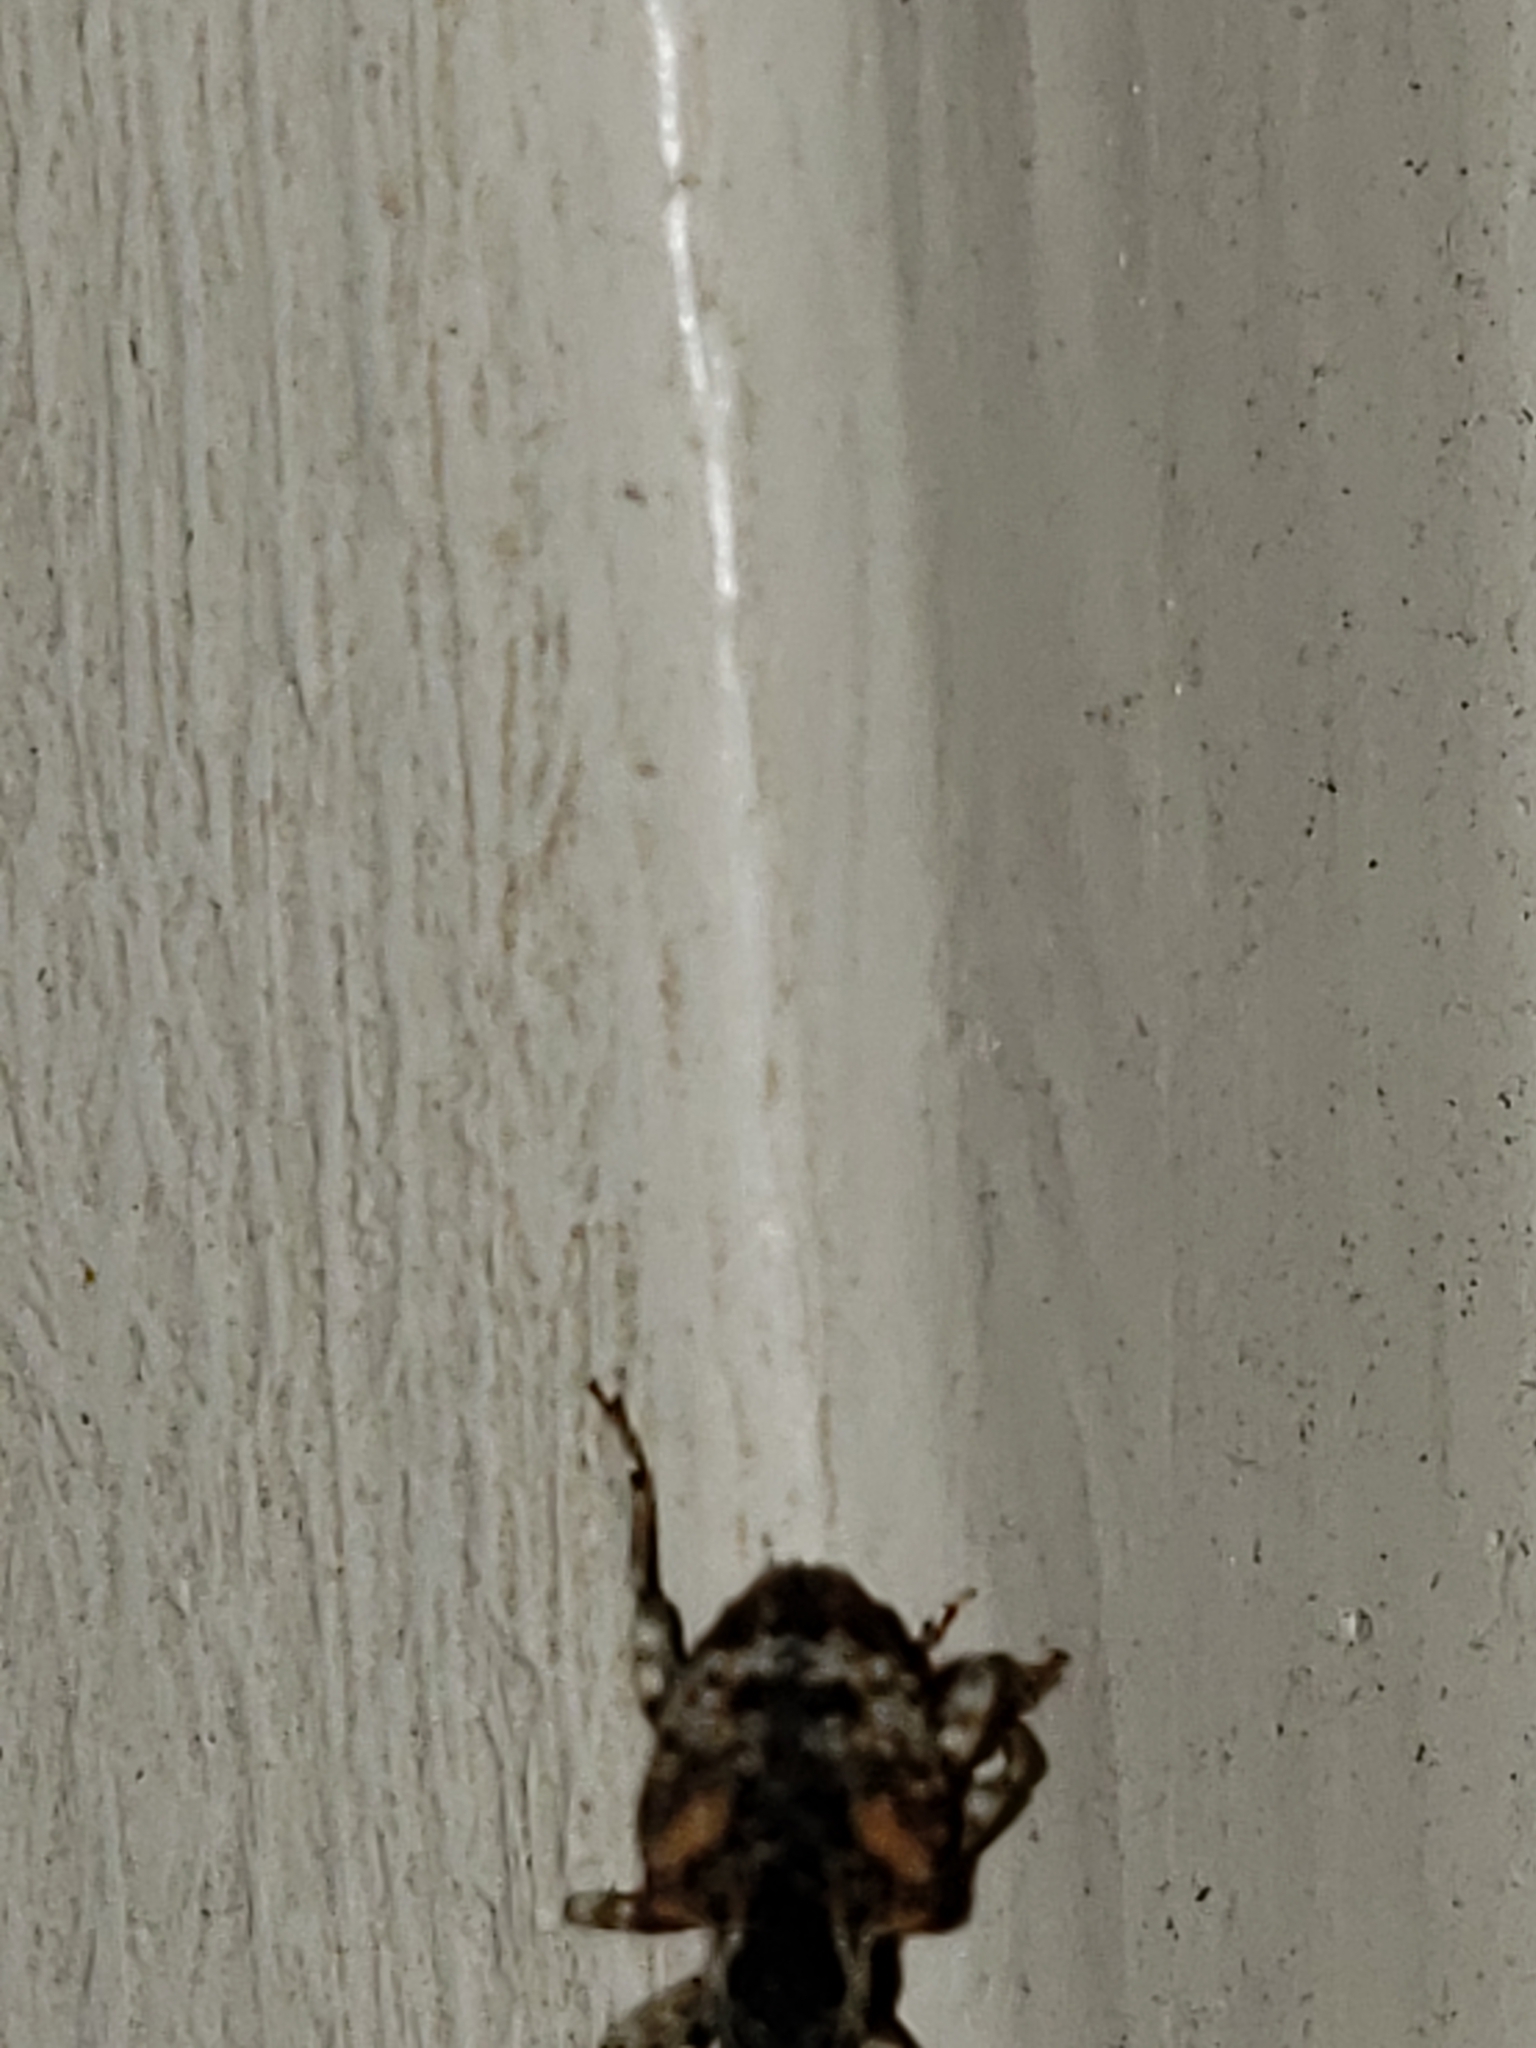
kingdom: Animalia
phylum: Arthropoda
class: Insecta
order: Coleoptera
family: Curculionidae
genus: Conotrachelus
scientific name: Conotrachelus anaglypticus
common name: Cambium curculio
